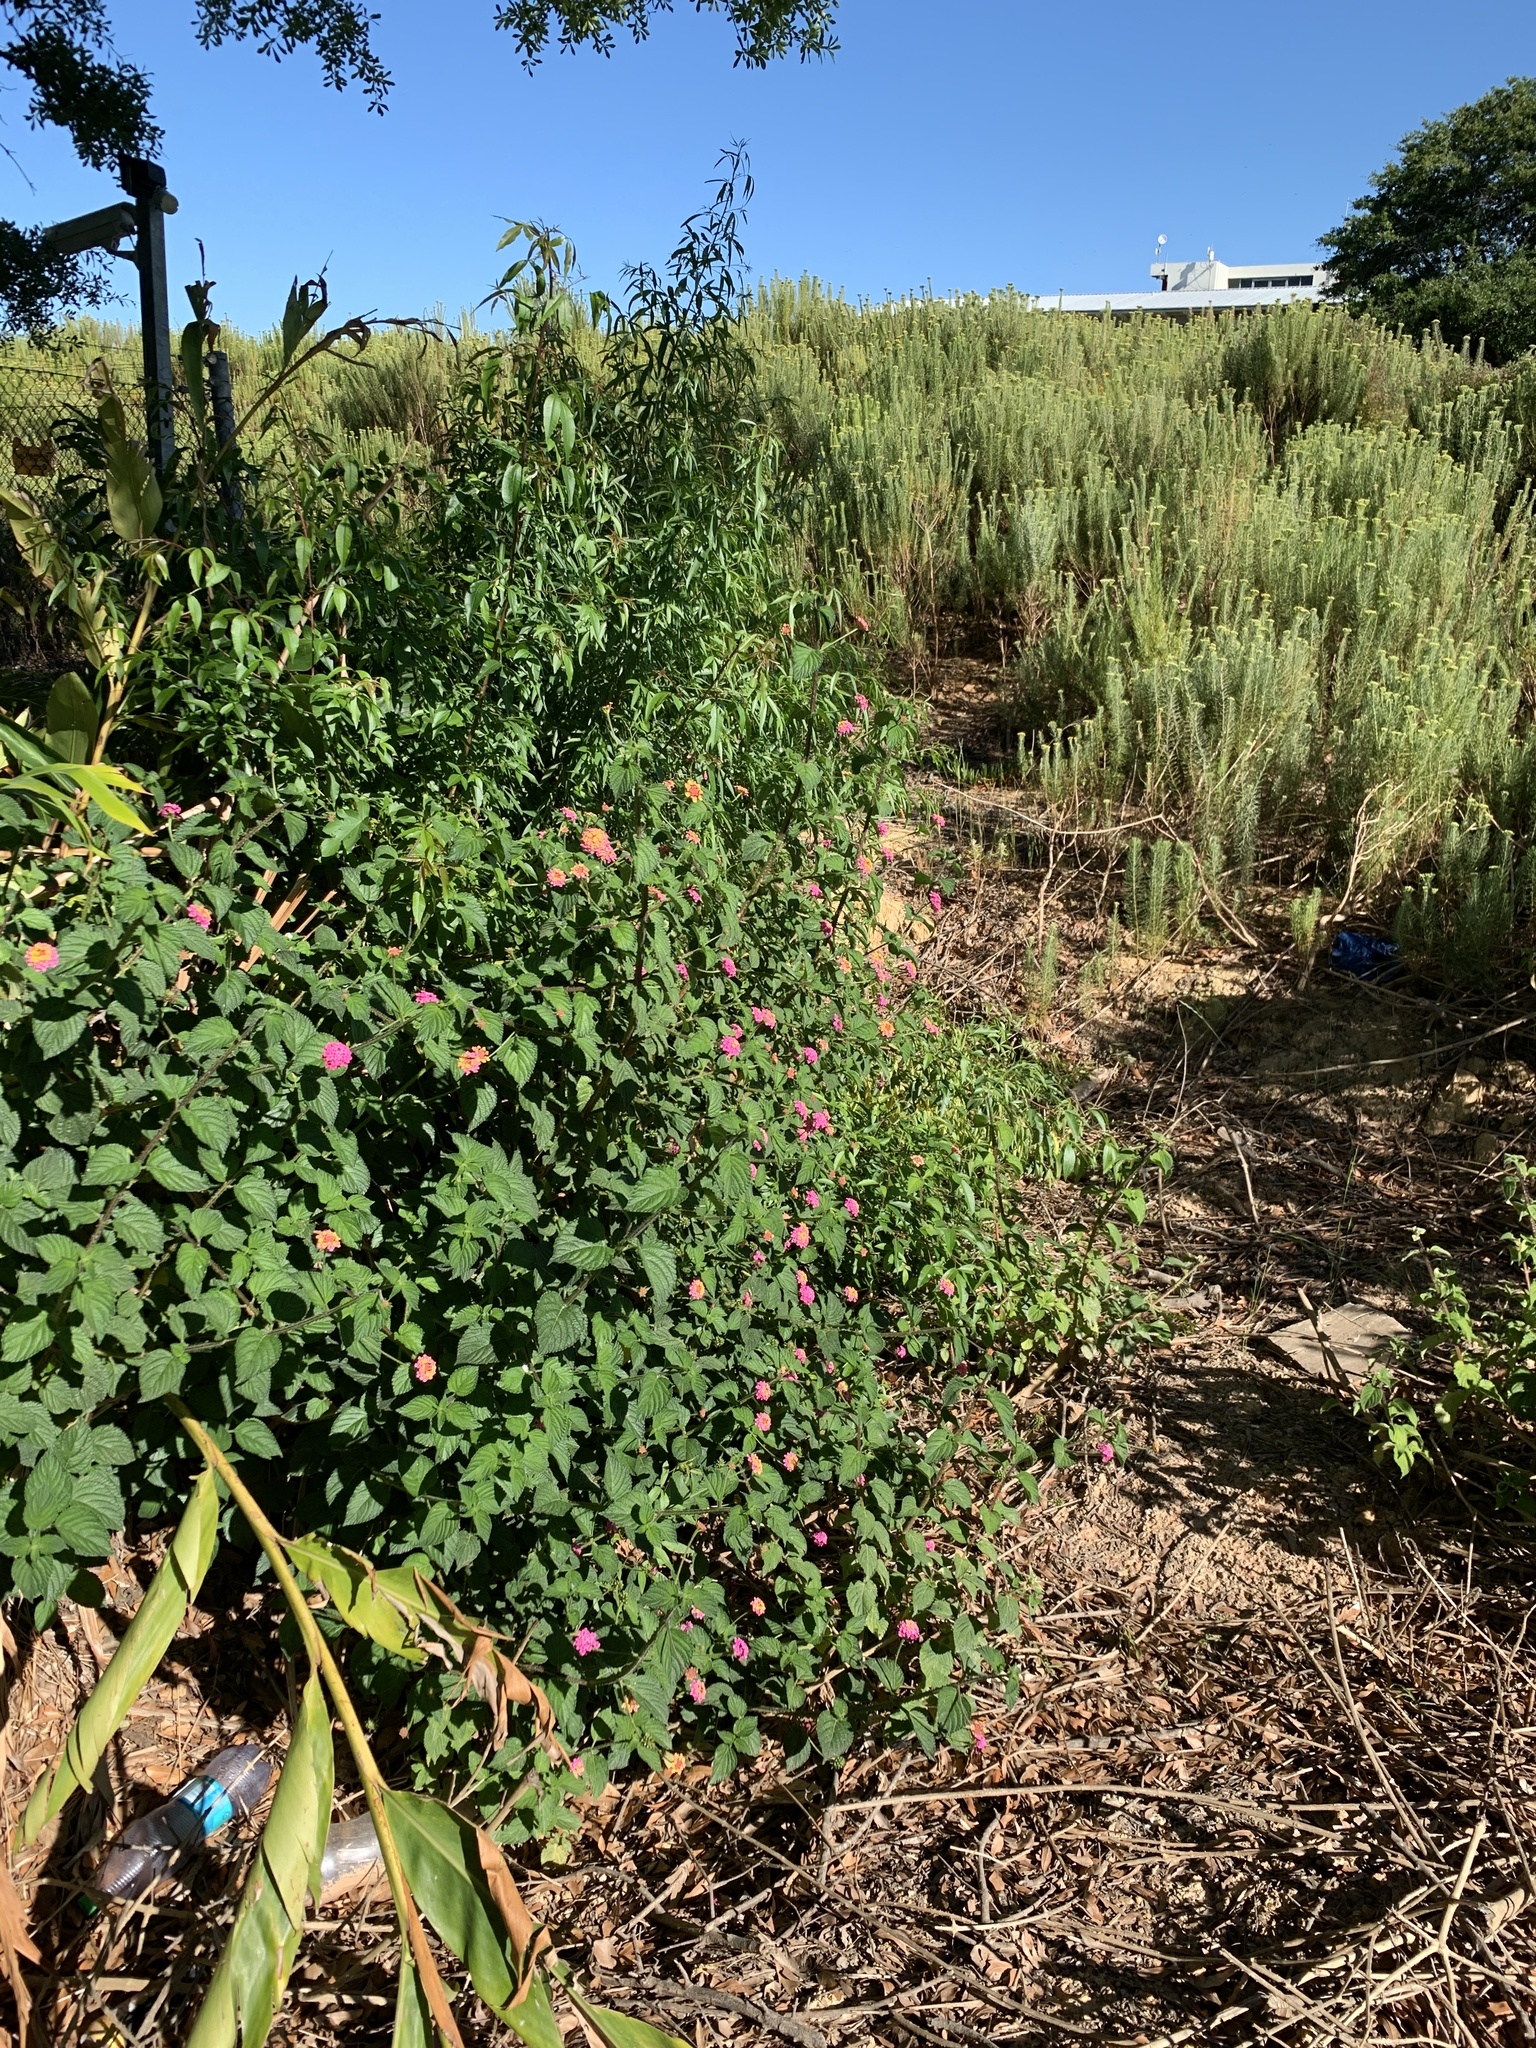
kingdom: Plantae
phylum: Tracheophyta
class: Magnoliopsida
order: Lamiales
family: Verbenaceae
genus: Lantana
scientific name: Lantana camara
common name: Lantana
